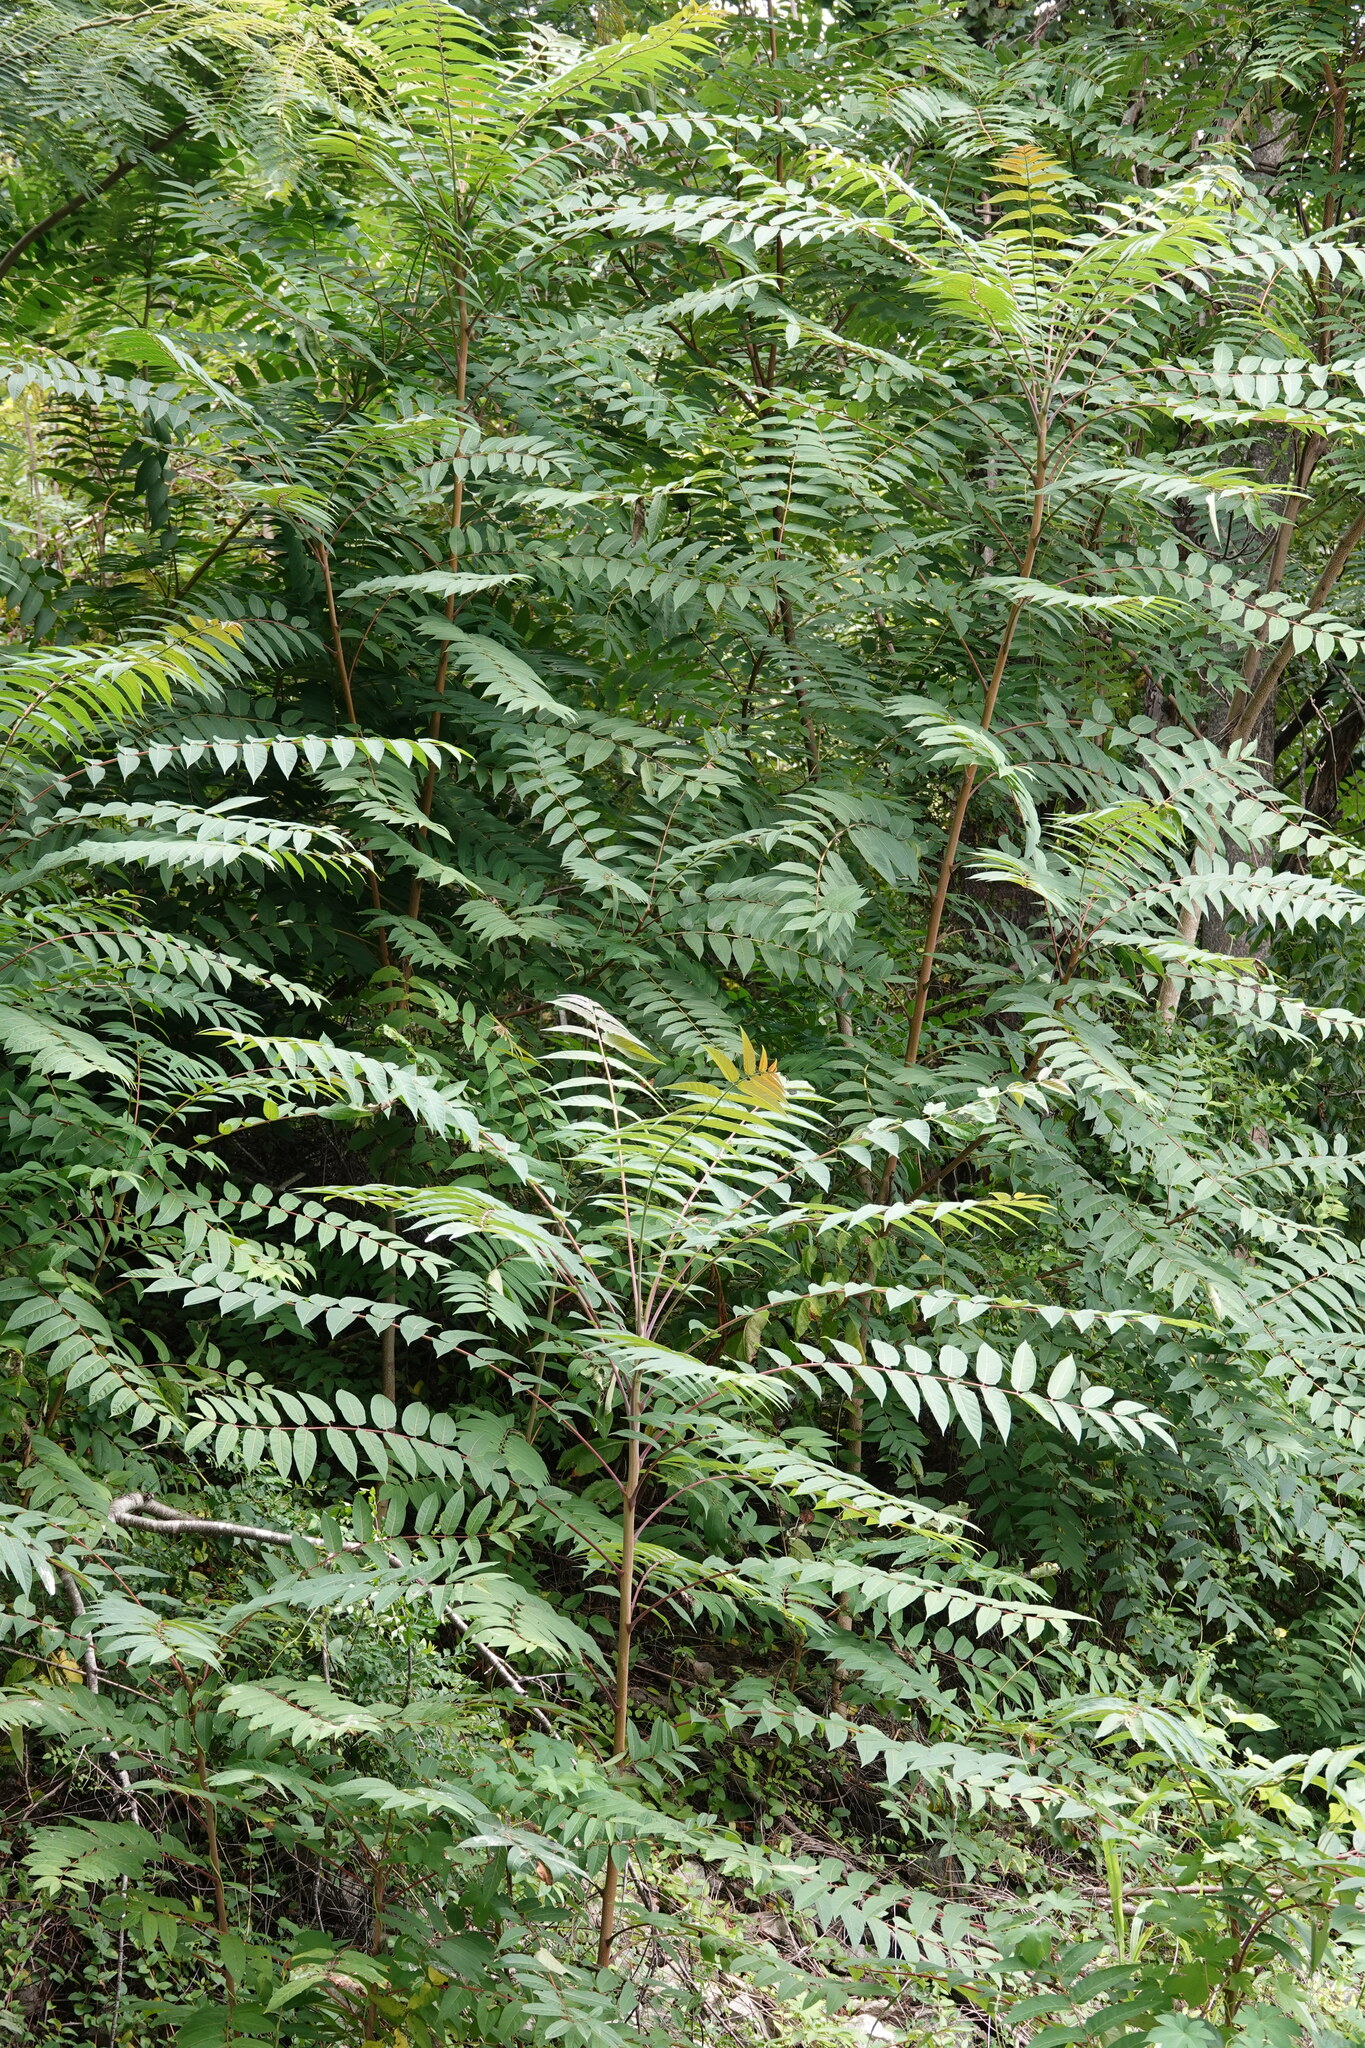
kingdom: Plantae
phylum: Tracheophyta
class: Magnoliopsida
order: Sapindales
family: Simaroubaceae
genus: Ailanthus
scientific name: Ailanthus altissima
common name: Tree-of-heaven
